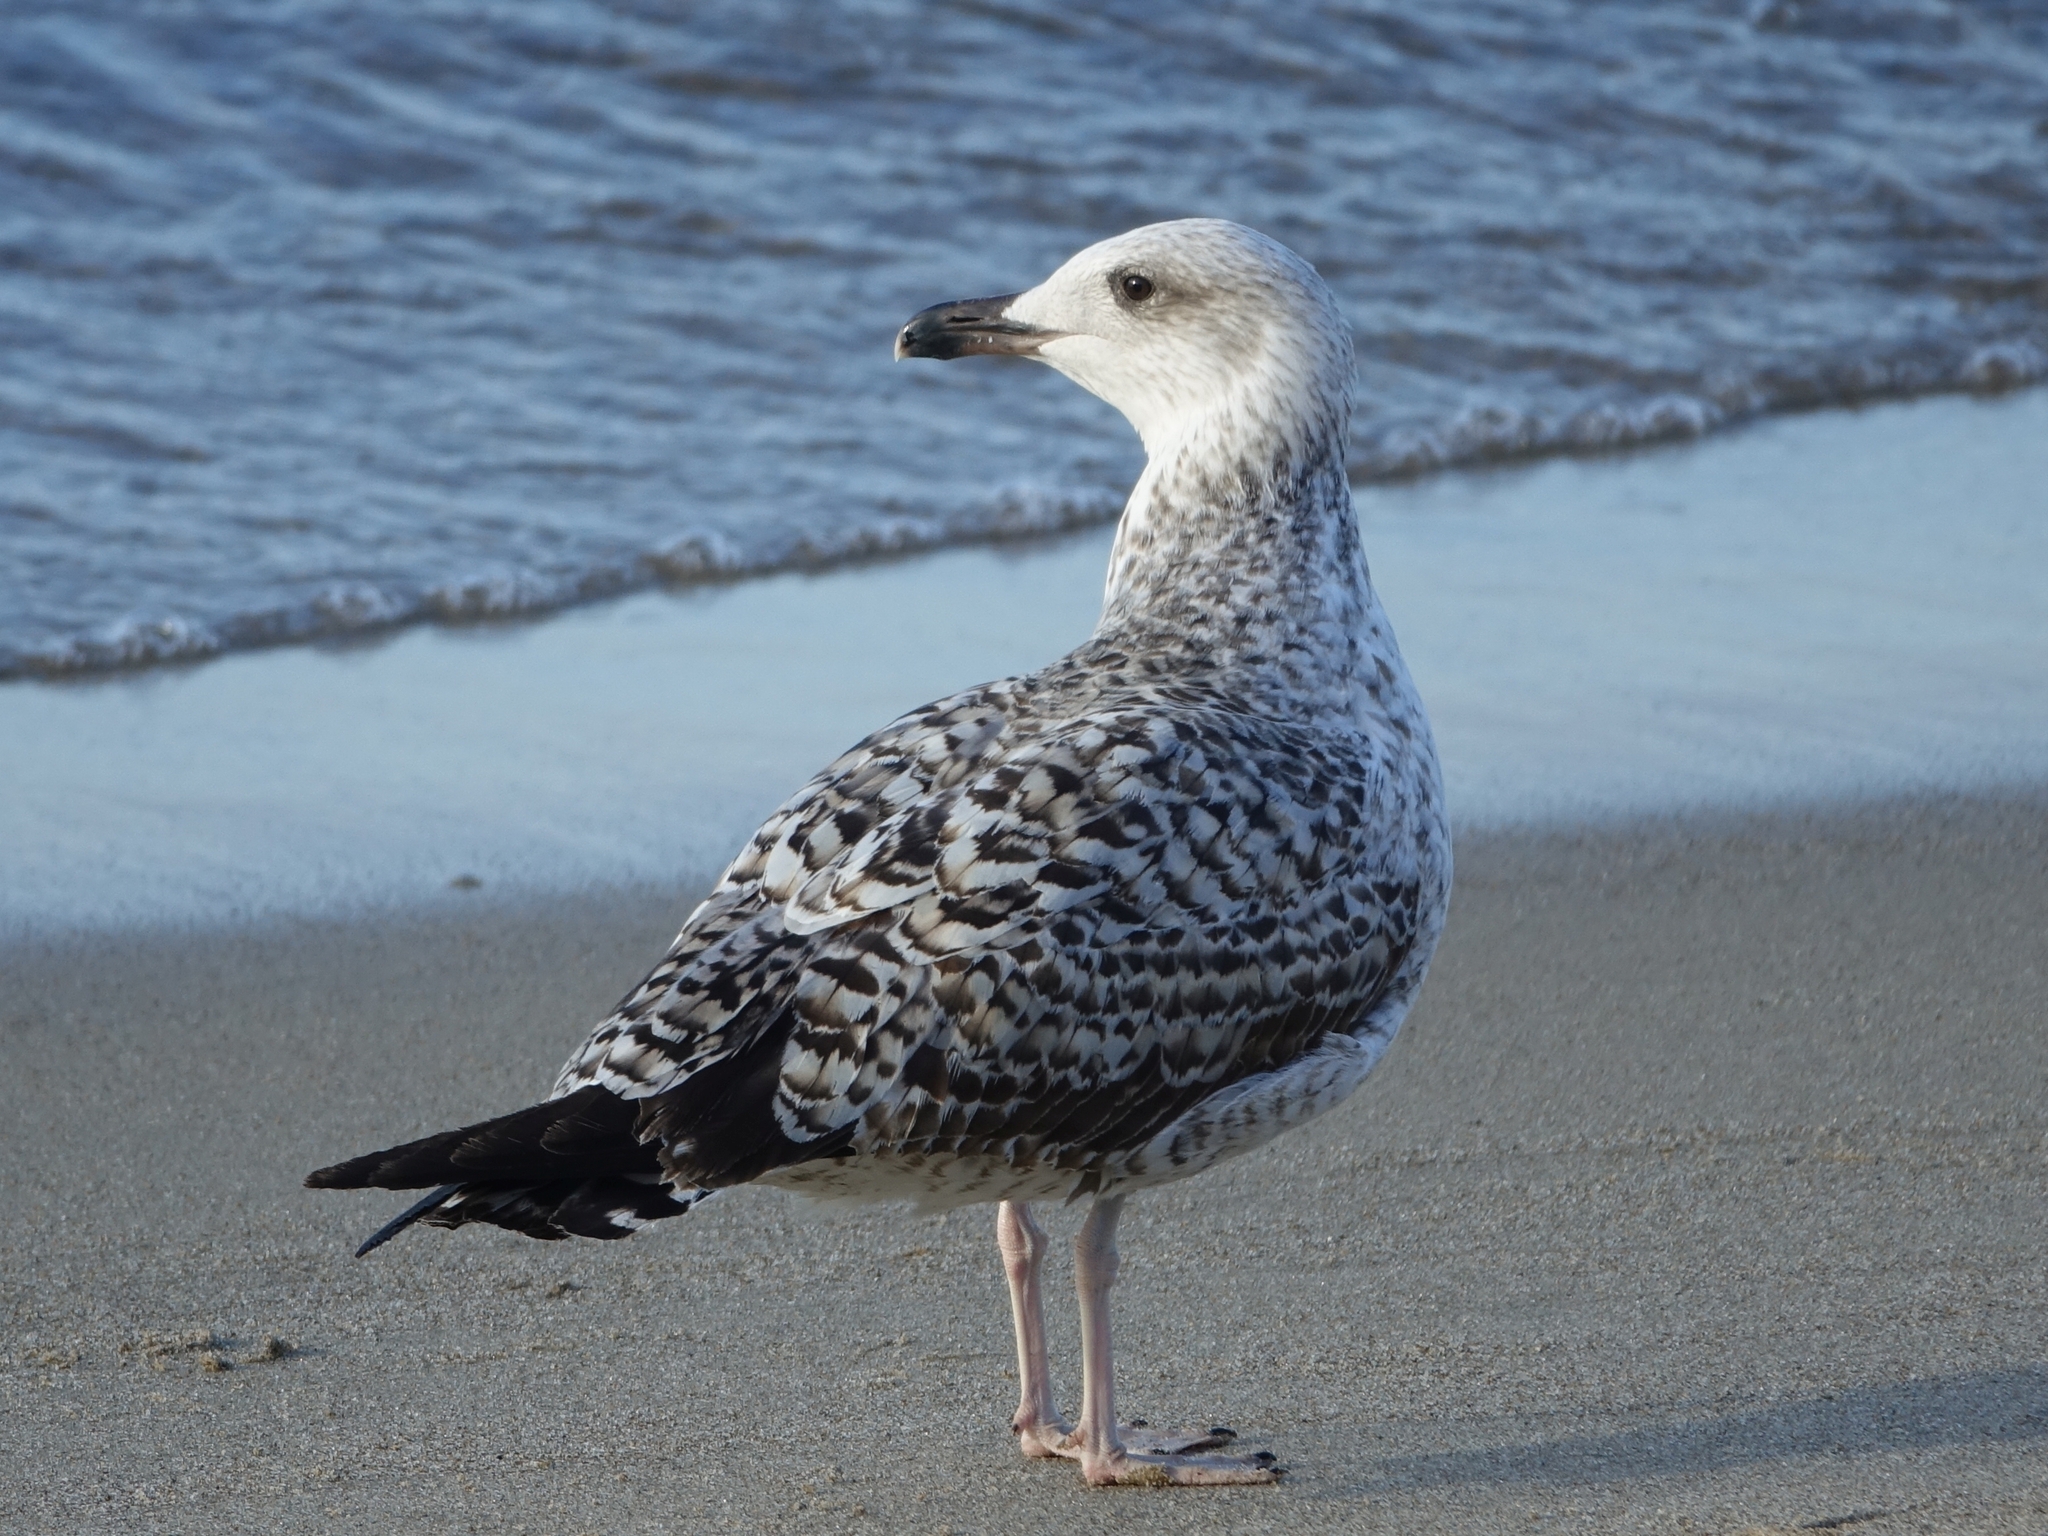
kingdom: Animalia
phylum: Chordata
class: Aves
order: Charadriiformes
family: Laridae
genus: Larus
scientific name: Larus michahellis
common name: Yellow-legged gull
